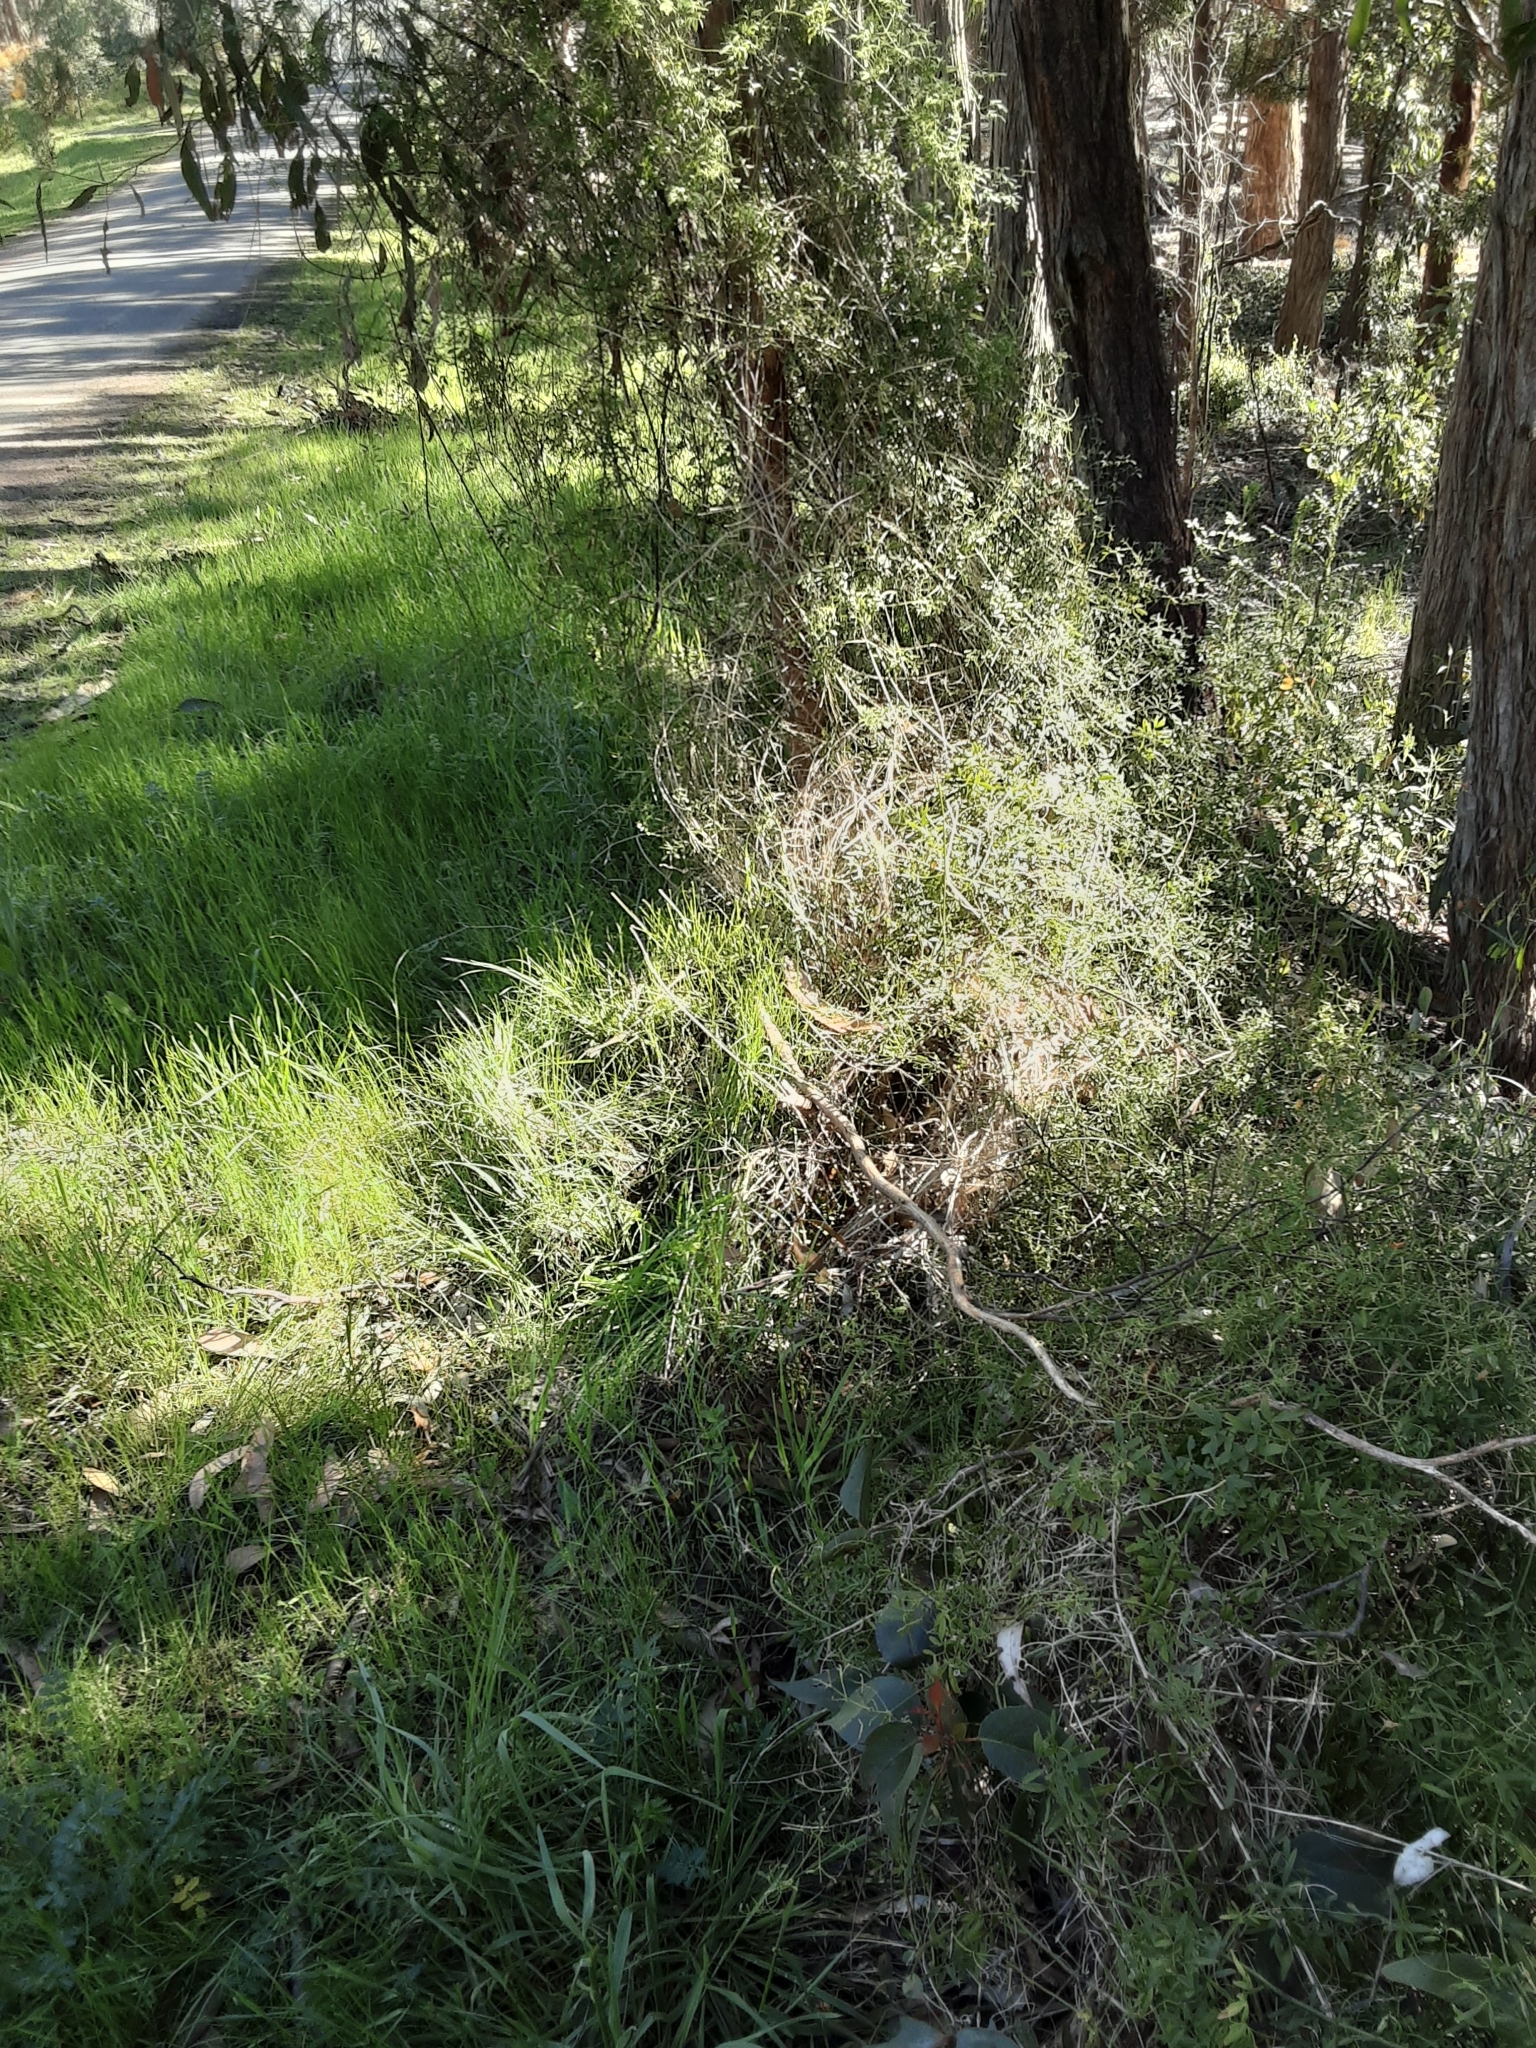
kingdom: Plantae
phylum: Tracheophyta
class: Magnoliopsida
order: Ranunculales
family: Ranunculaceae
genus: Clematis
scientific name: Clematis microphylla
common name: Headachevine
